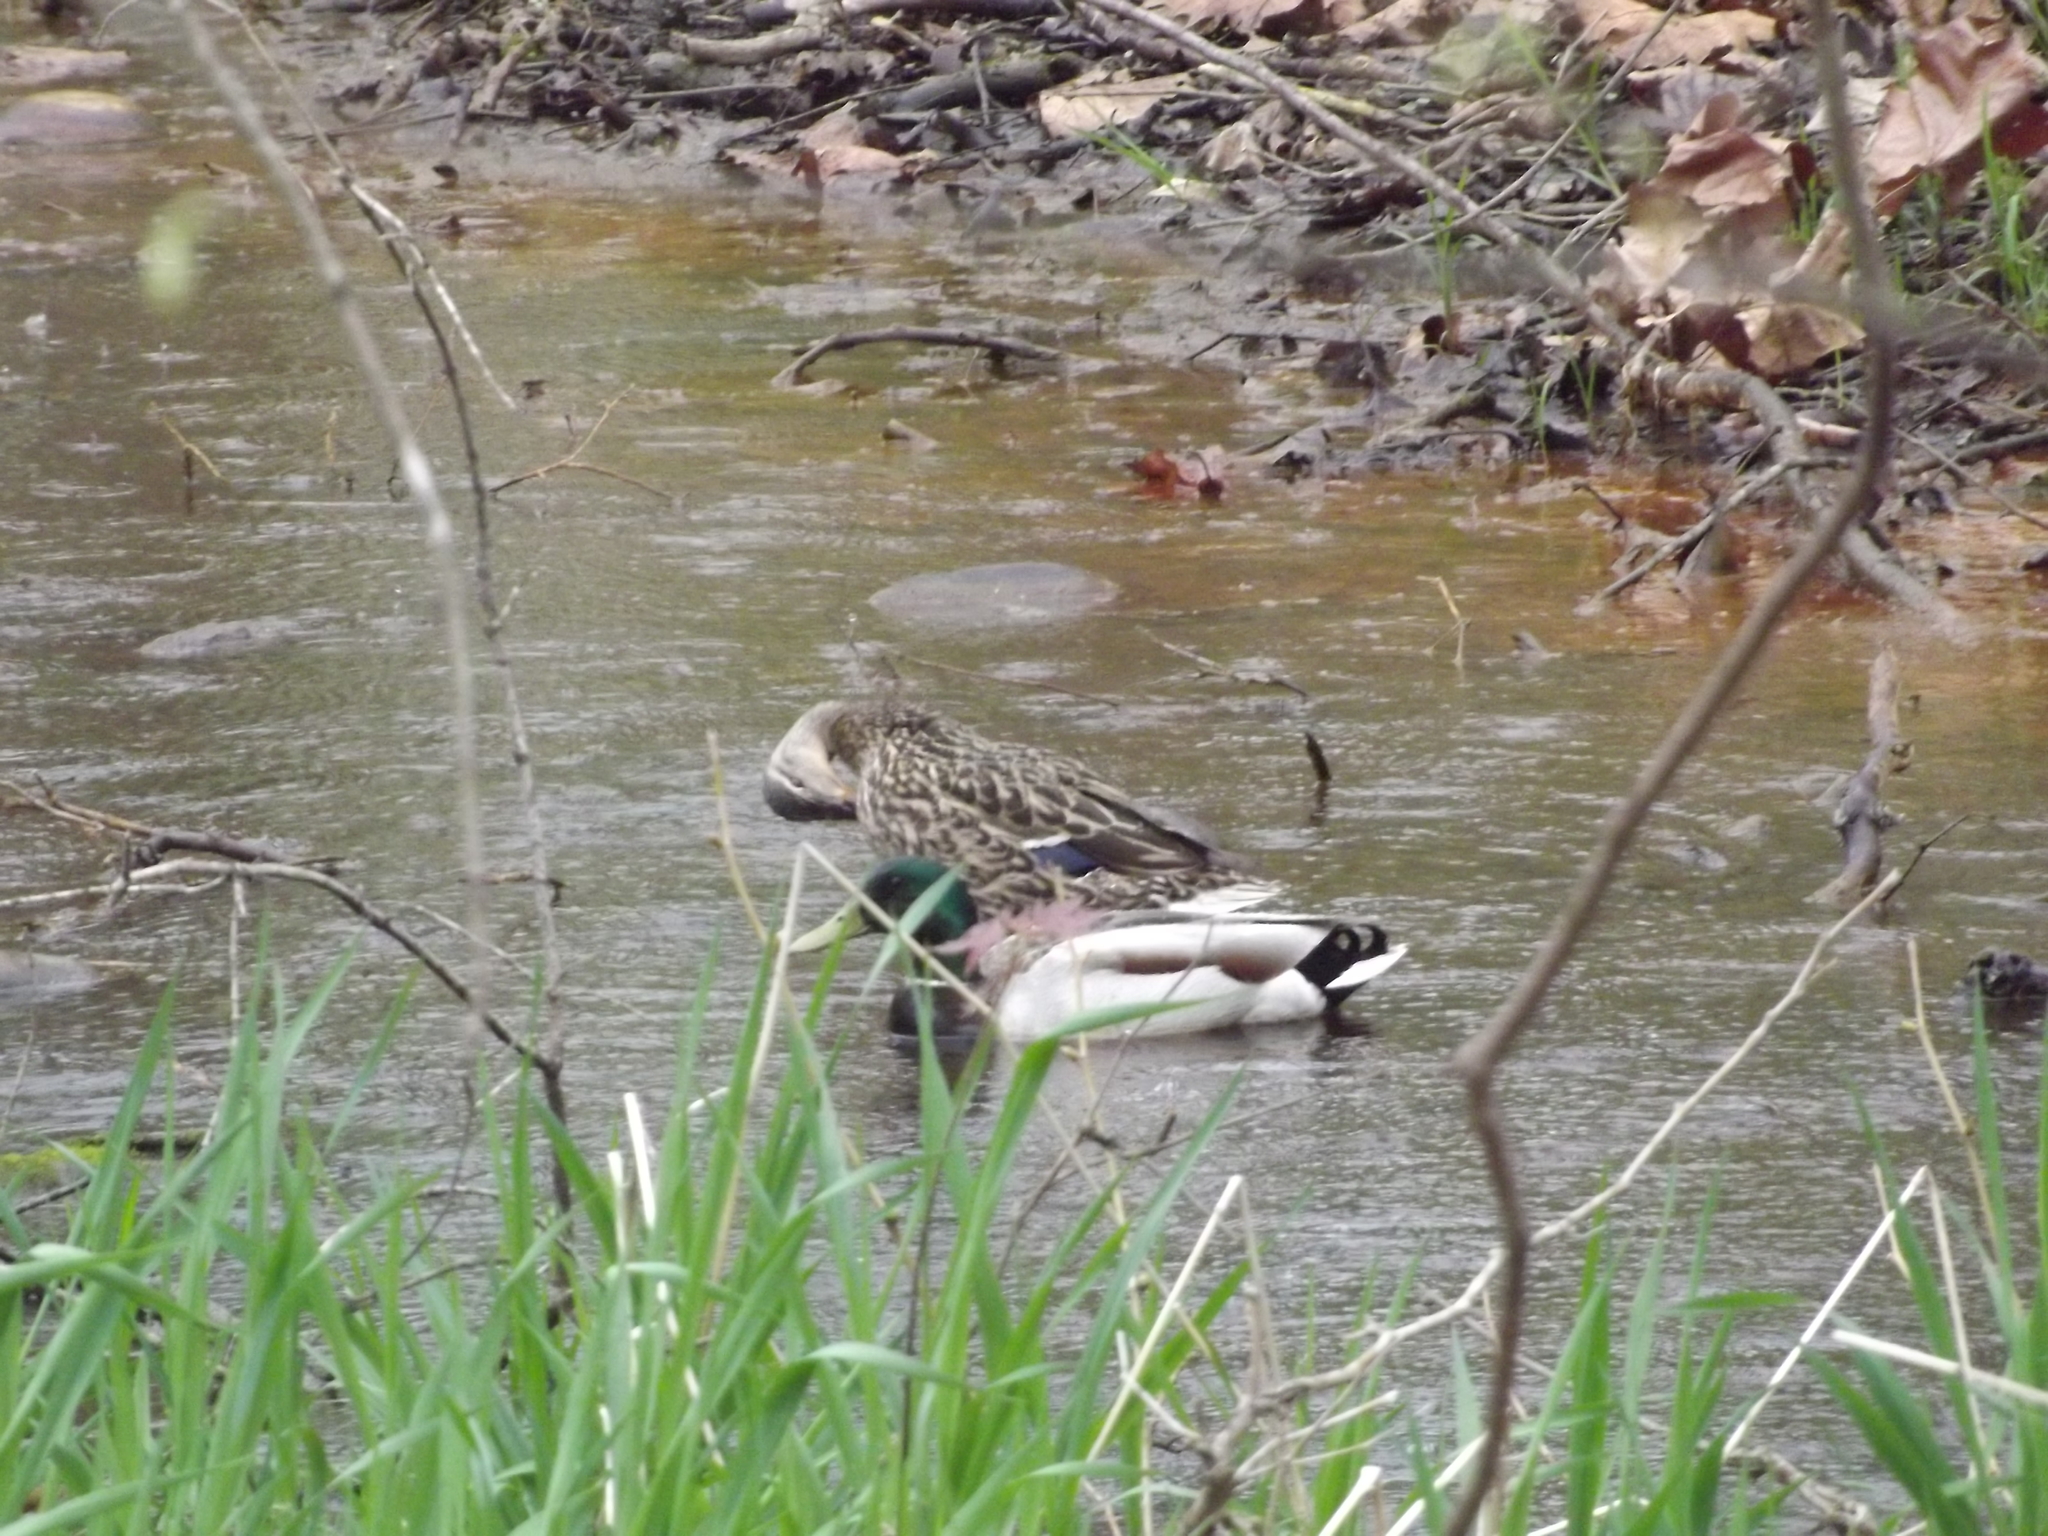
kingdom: Animalia
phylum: Chordata
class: Aves
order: Anseriformes
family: Anatidae
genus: Anas
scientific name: Anas platyrhynchos
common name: Mallard
